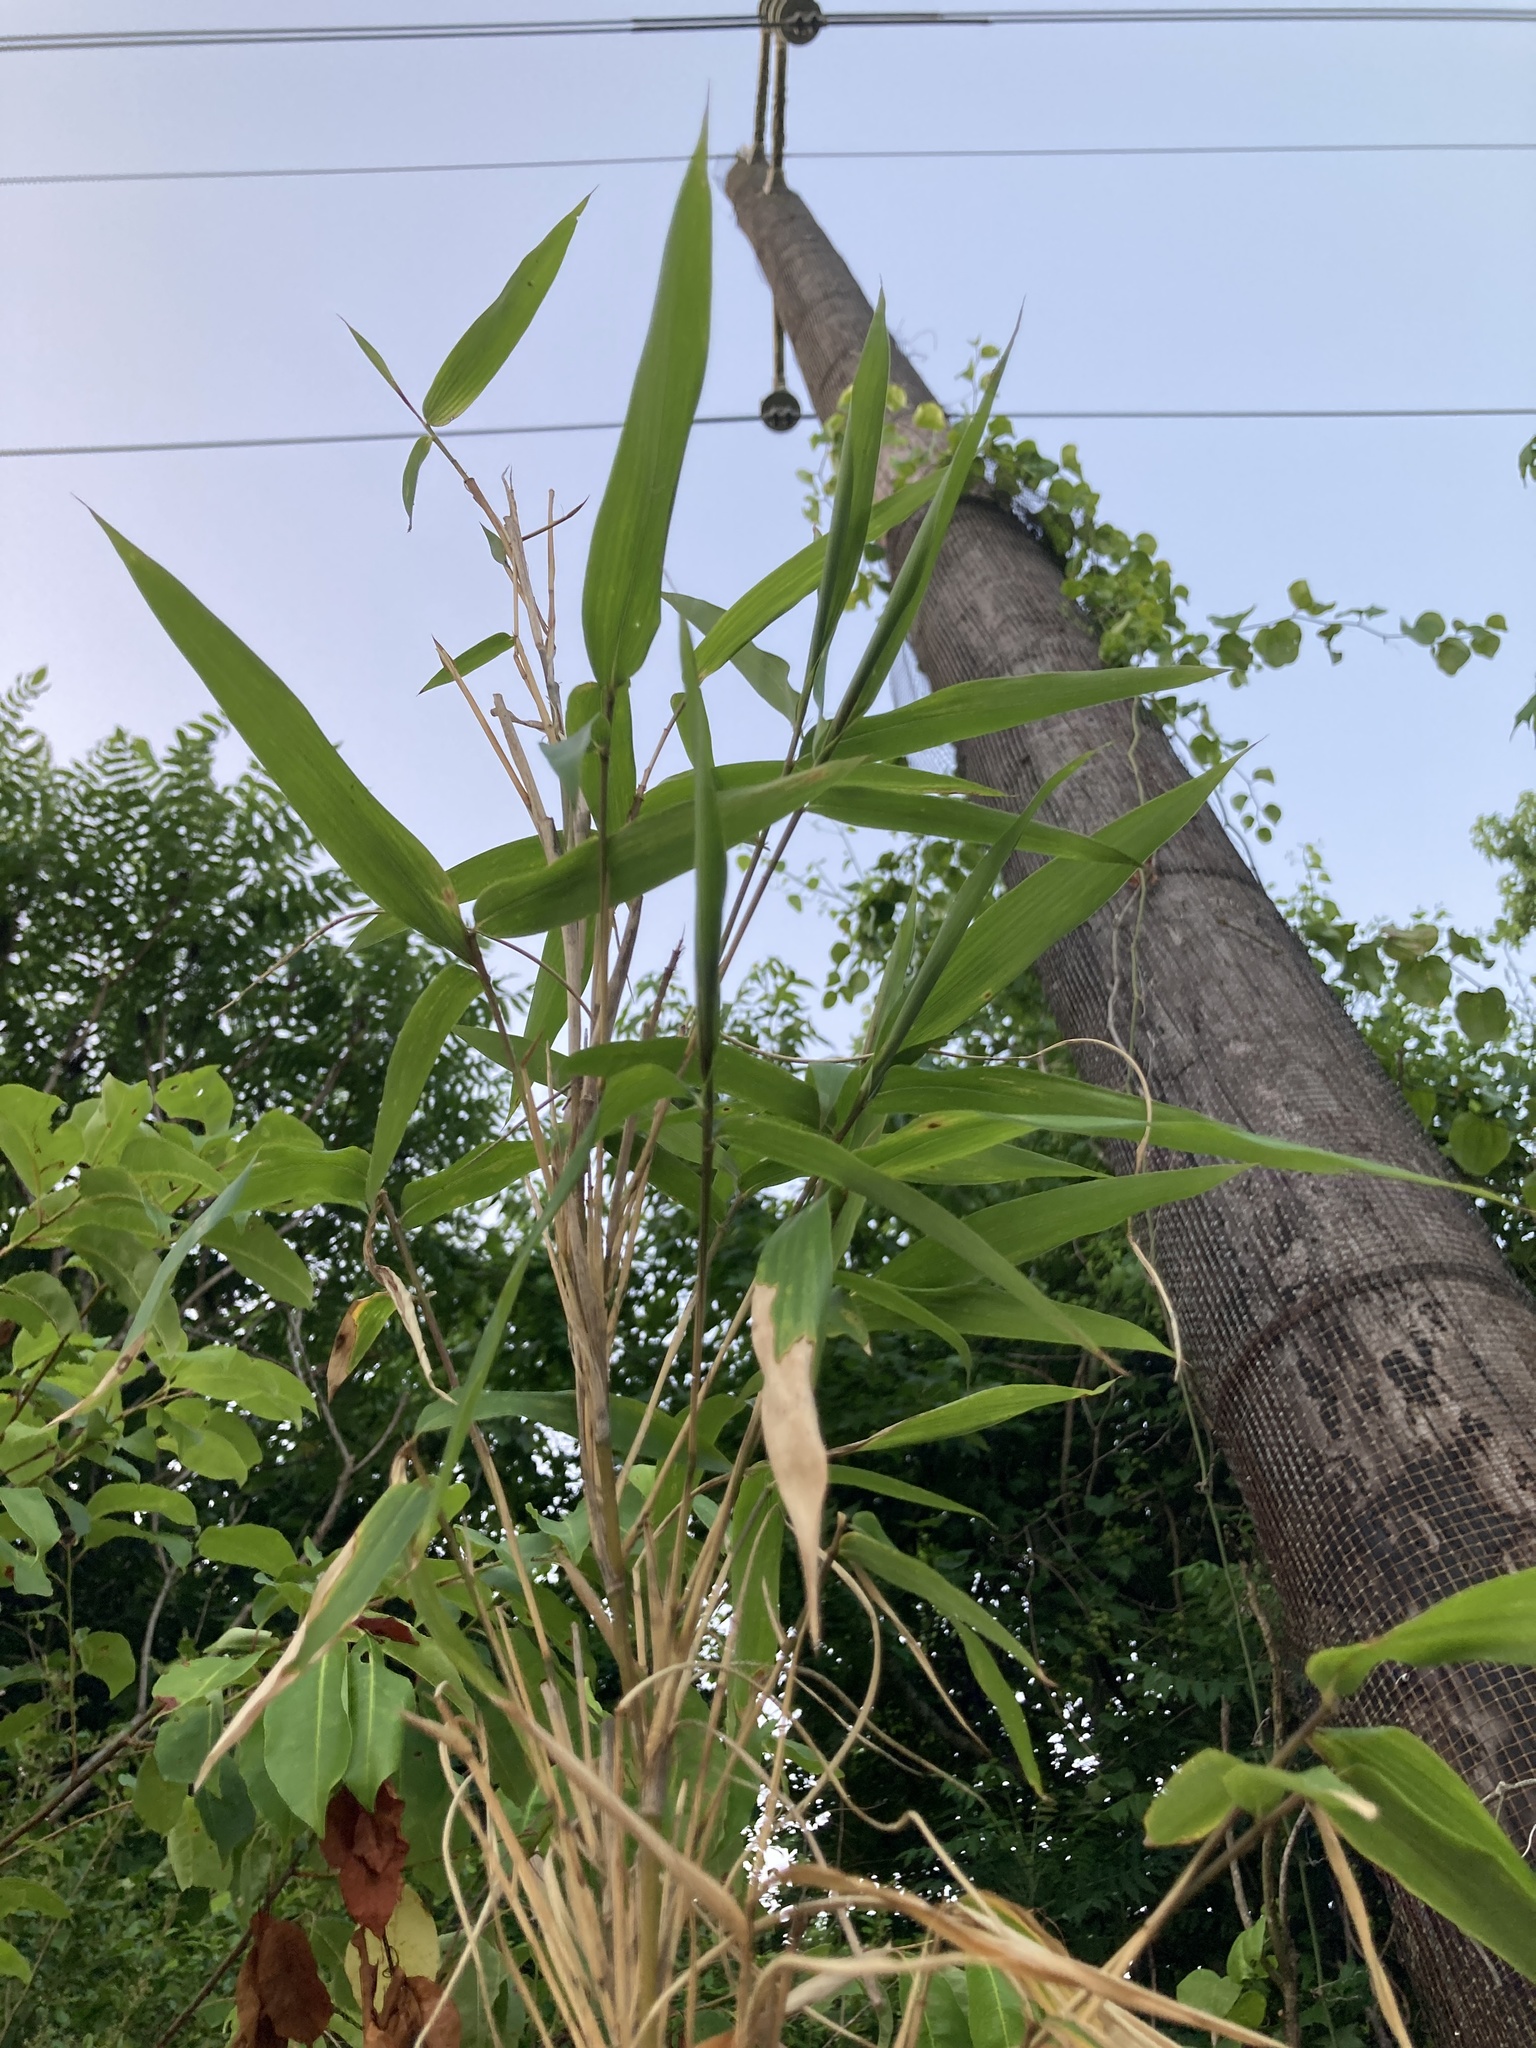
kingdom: Plantae
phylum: Tracheophyta
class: Liliopsida
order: Poales
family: Poaceae
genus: Arundinaria
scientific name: Arundinaria gigantea
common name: Giant cane
